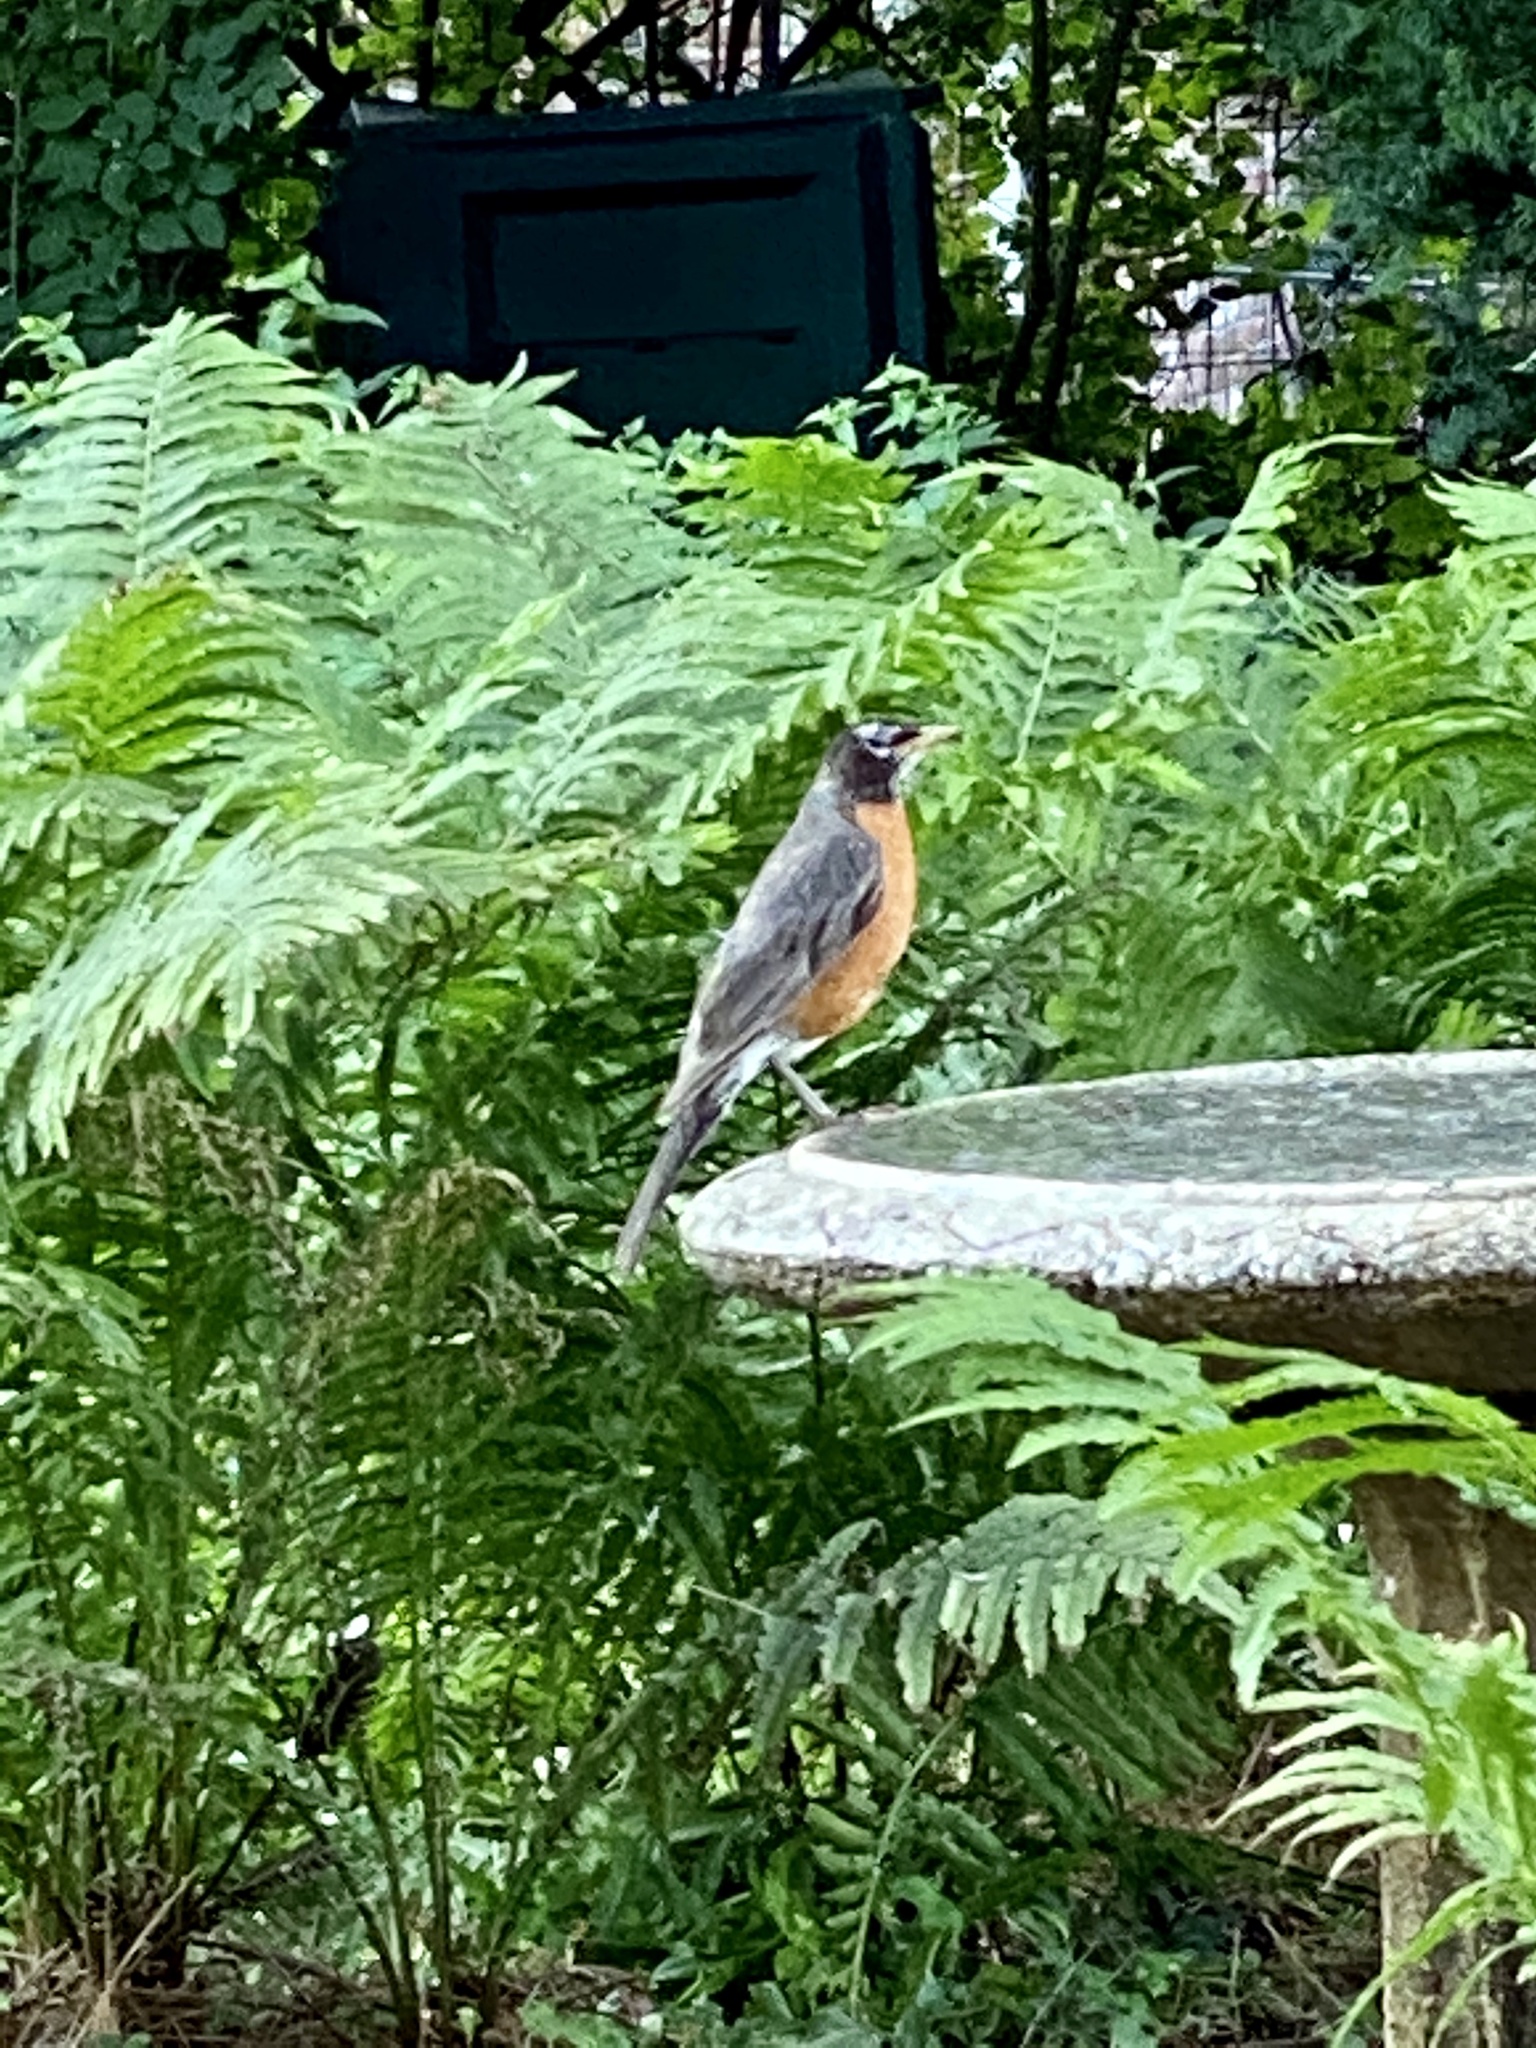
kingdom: Animalia
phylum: Chordata
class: Aves
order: Passeriformes
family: Turdidae
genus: Turdus
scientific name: Turdus migratorius
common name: American robin
